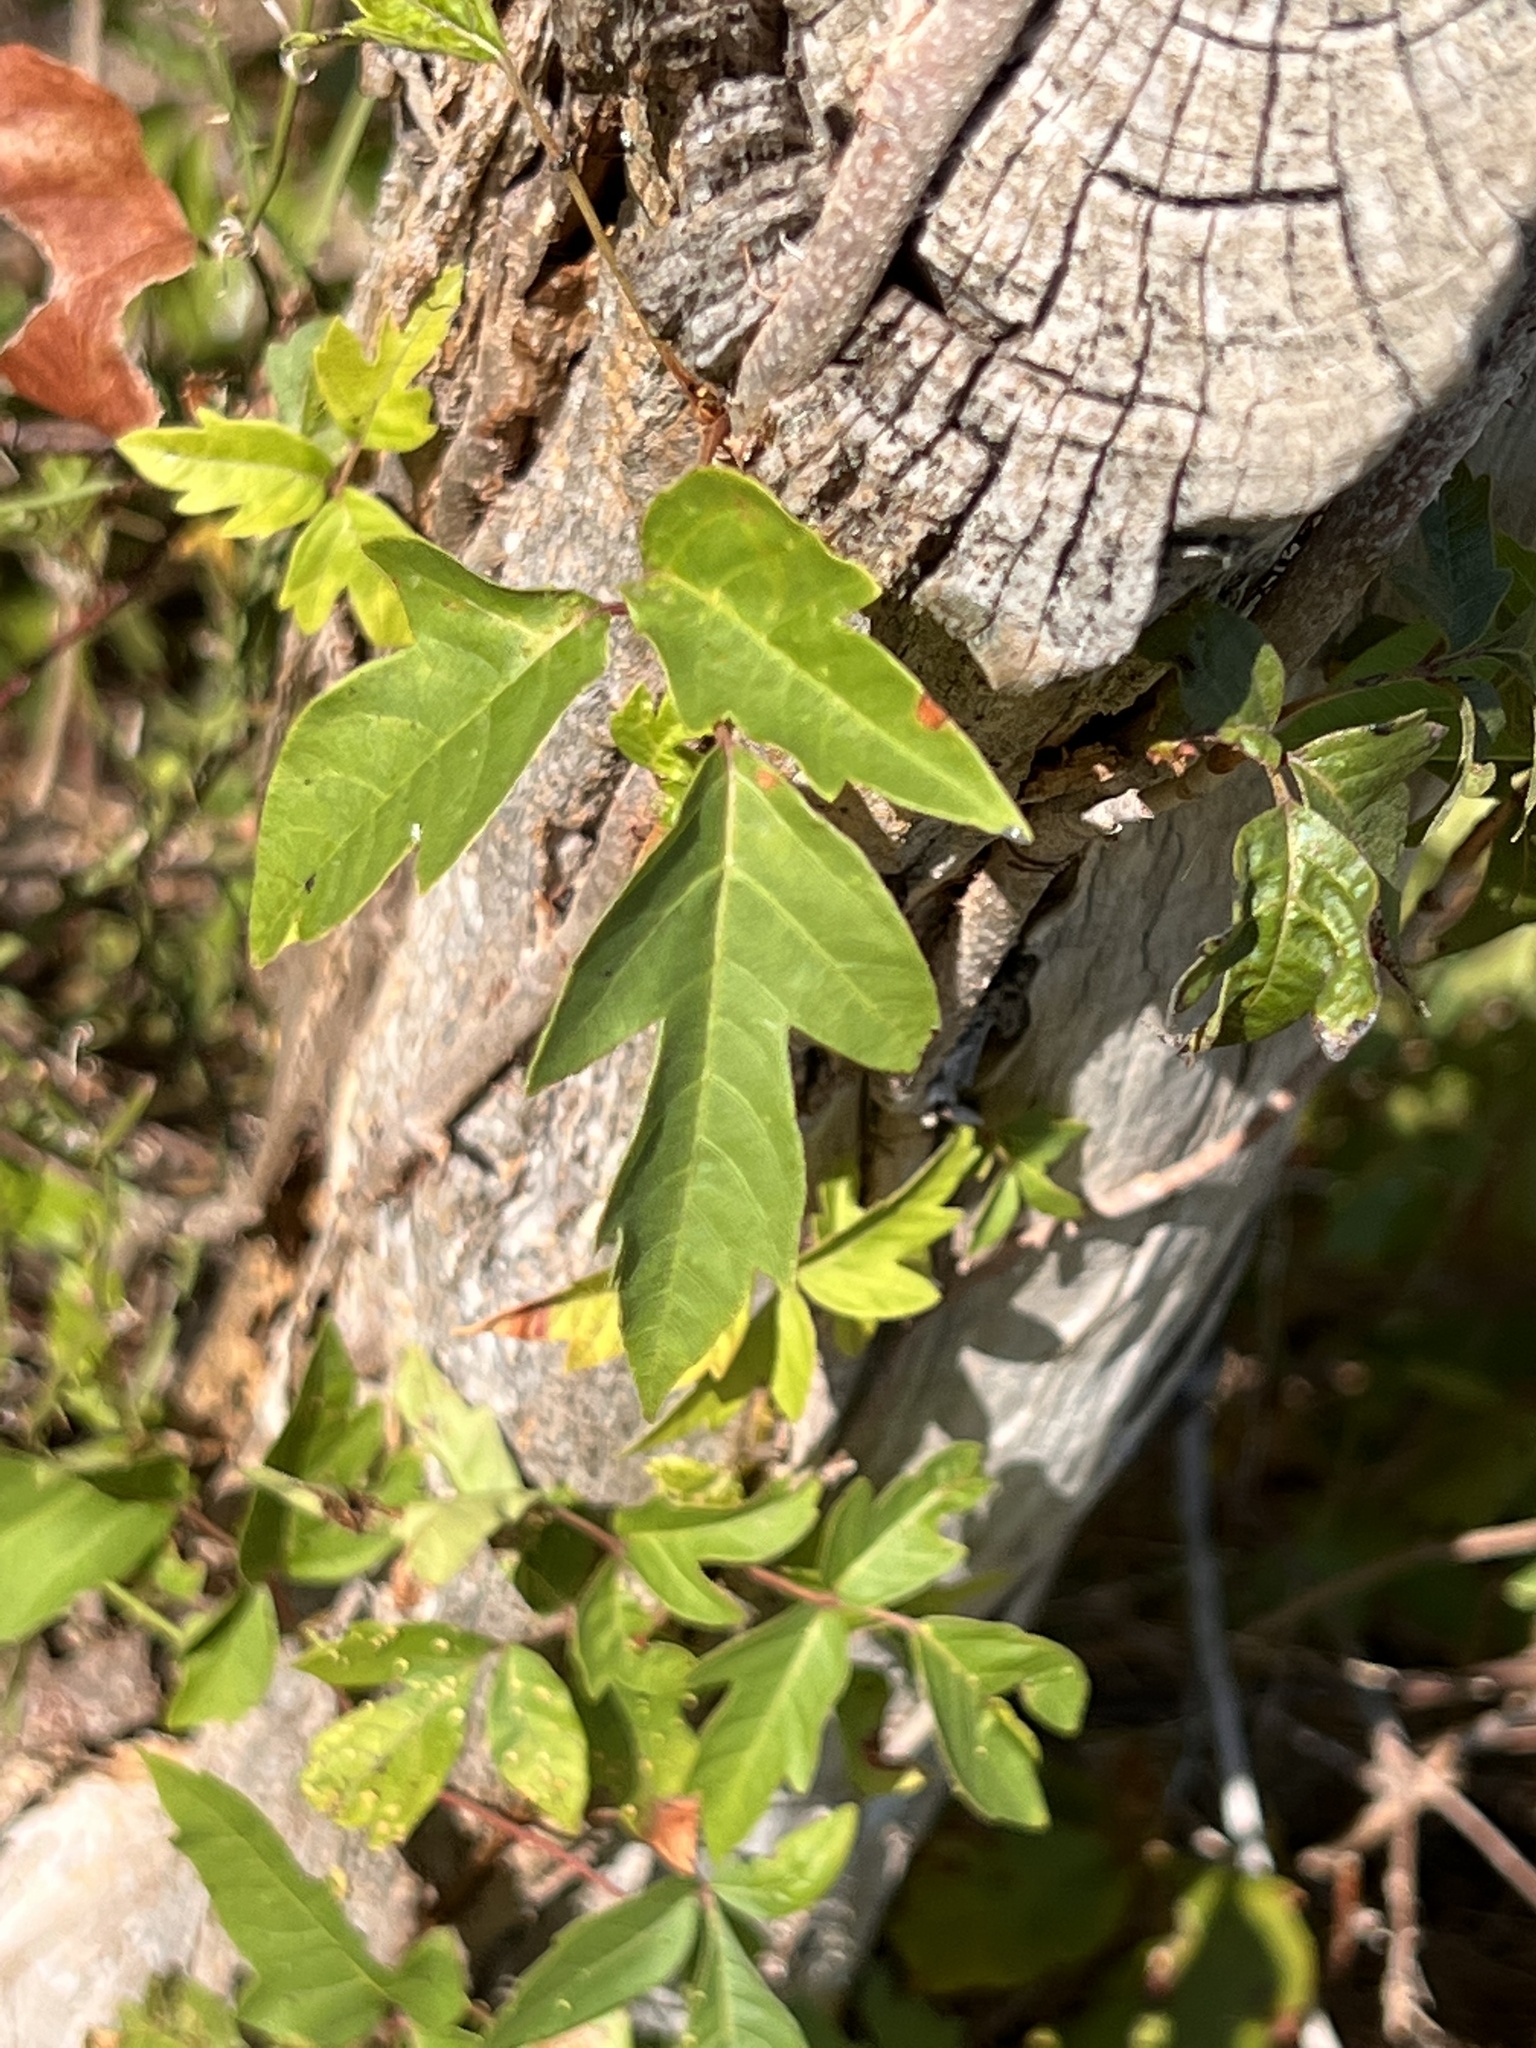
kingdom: Plantae
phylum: Tracheophyta
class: Magnoliopsida
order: Sapindales
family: Anacardiaceae
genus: Toxicodendron
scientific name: Toxicodendron radicans
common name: Poison ivy
